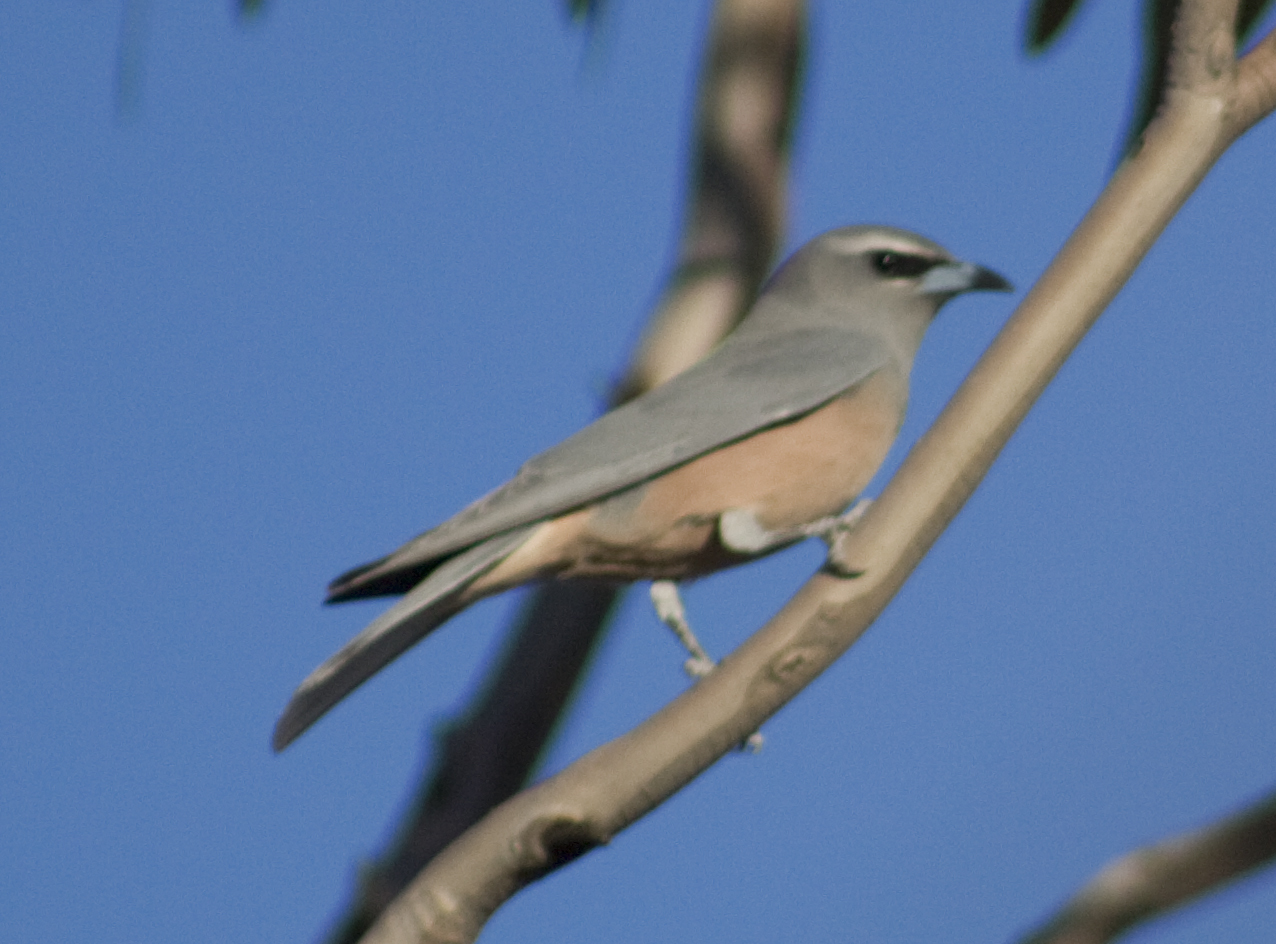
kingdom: Animalia
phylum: Chordata
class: Aves
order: Passeriformes
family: Artamidae
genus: Artamus
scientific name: Artamus superciliosus
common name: White-browed woodswallow
